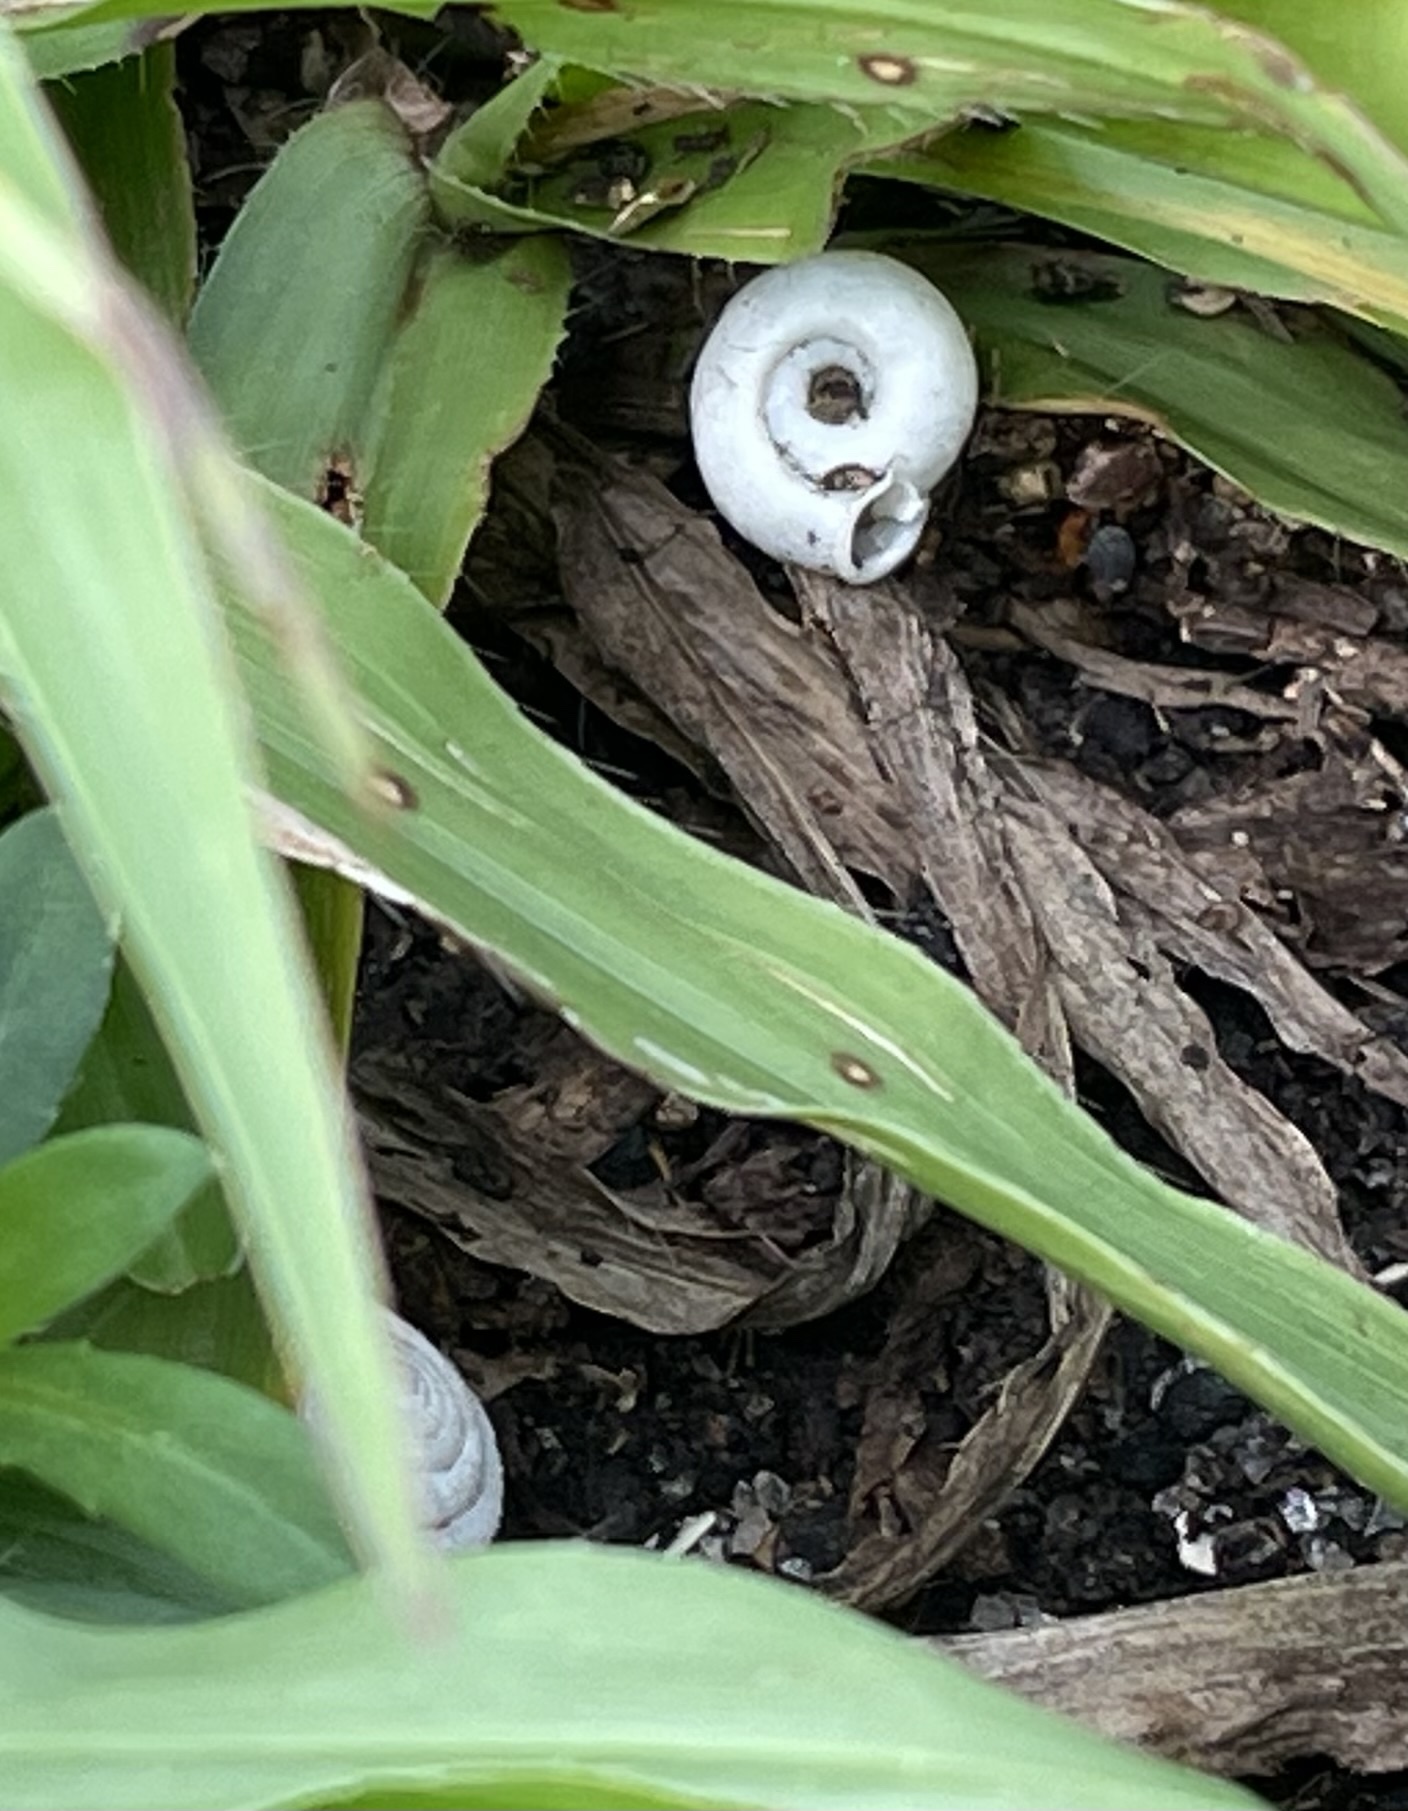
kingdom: Animalia
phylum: Mollusca
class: Gastropoda
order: Stylommatophora
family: Polygyridae
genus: Polygyra
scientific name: Polygyra cereolus
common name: Southern flatcone snail
